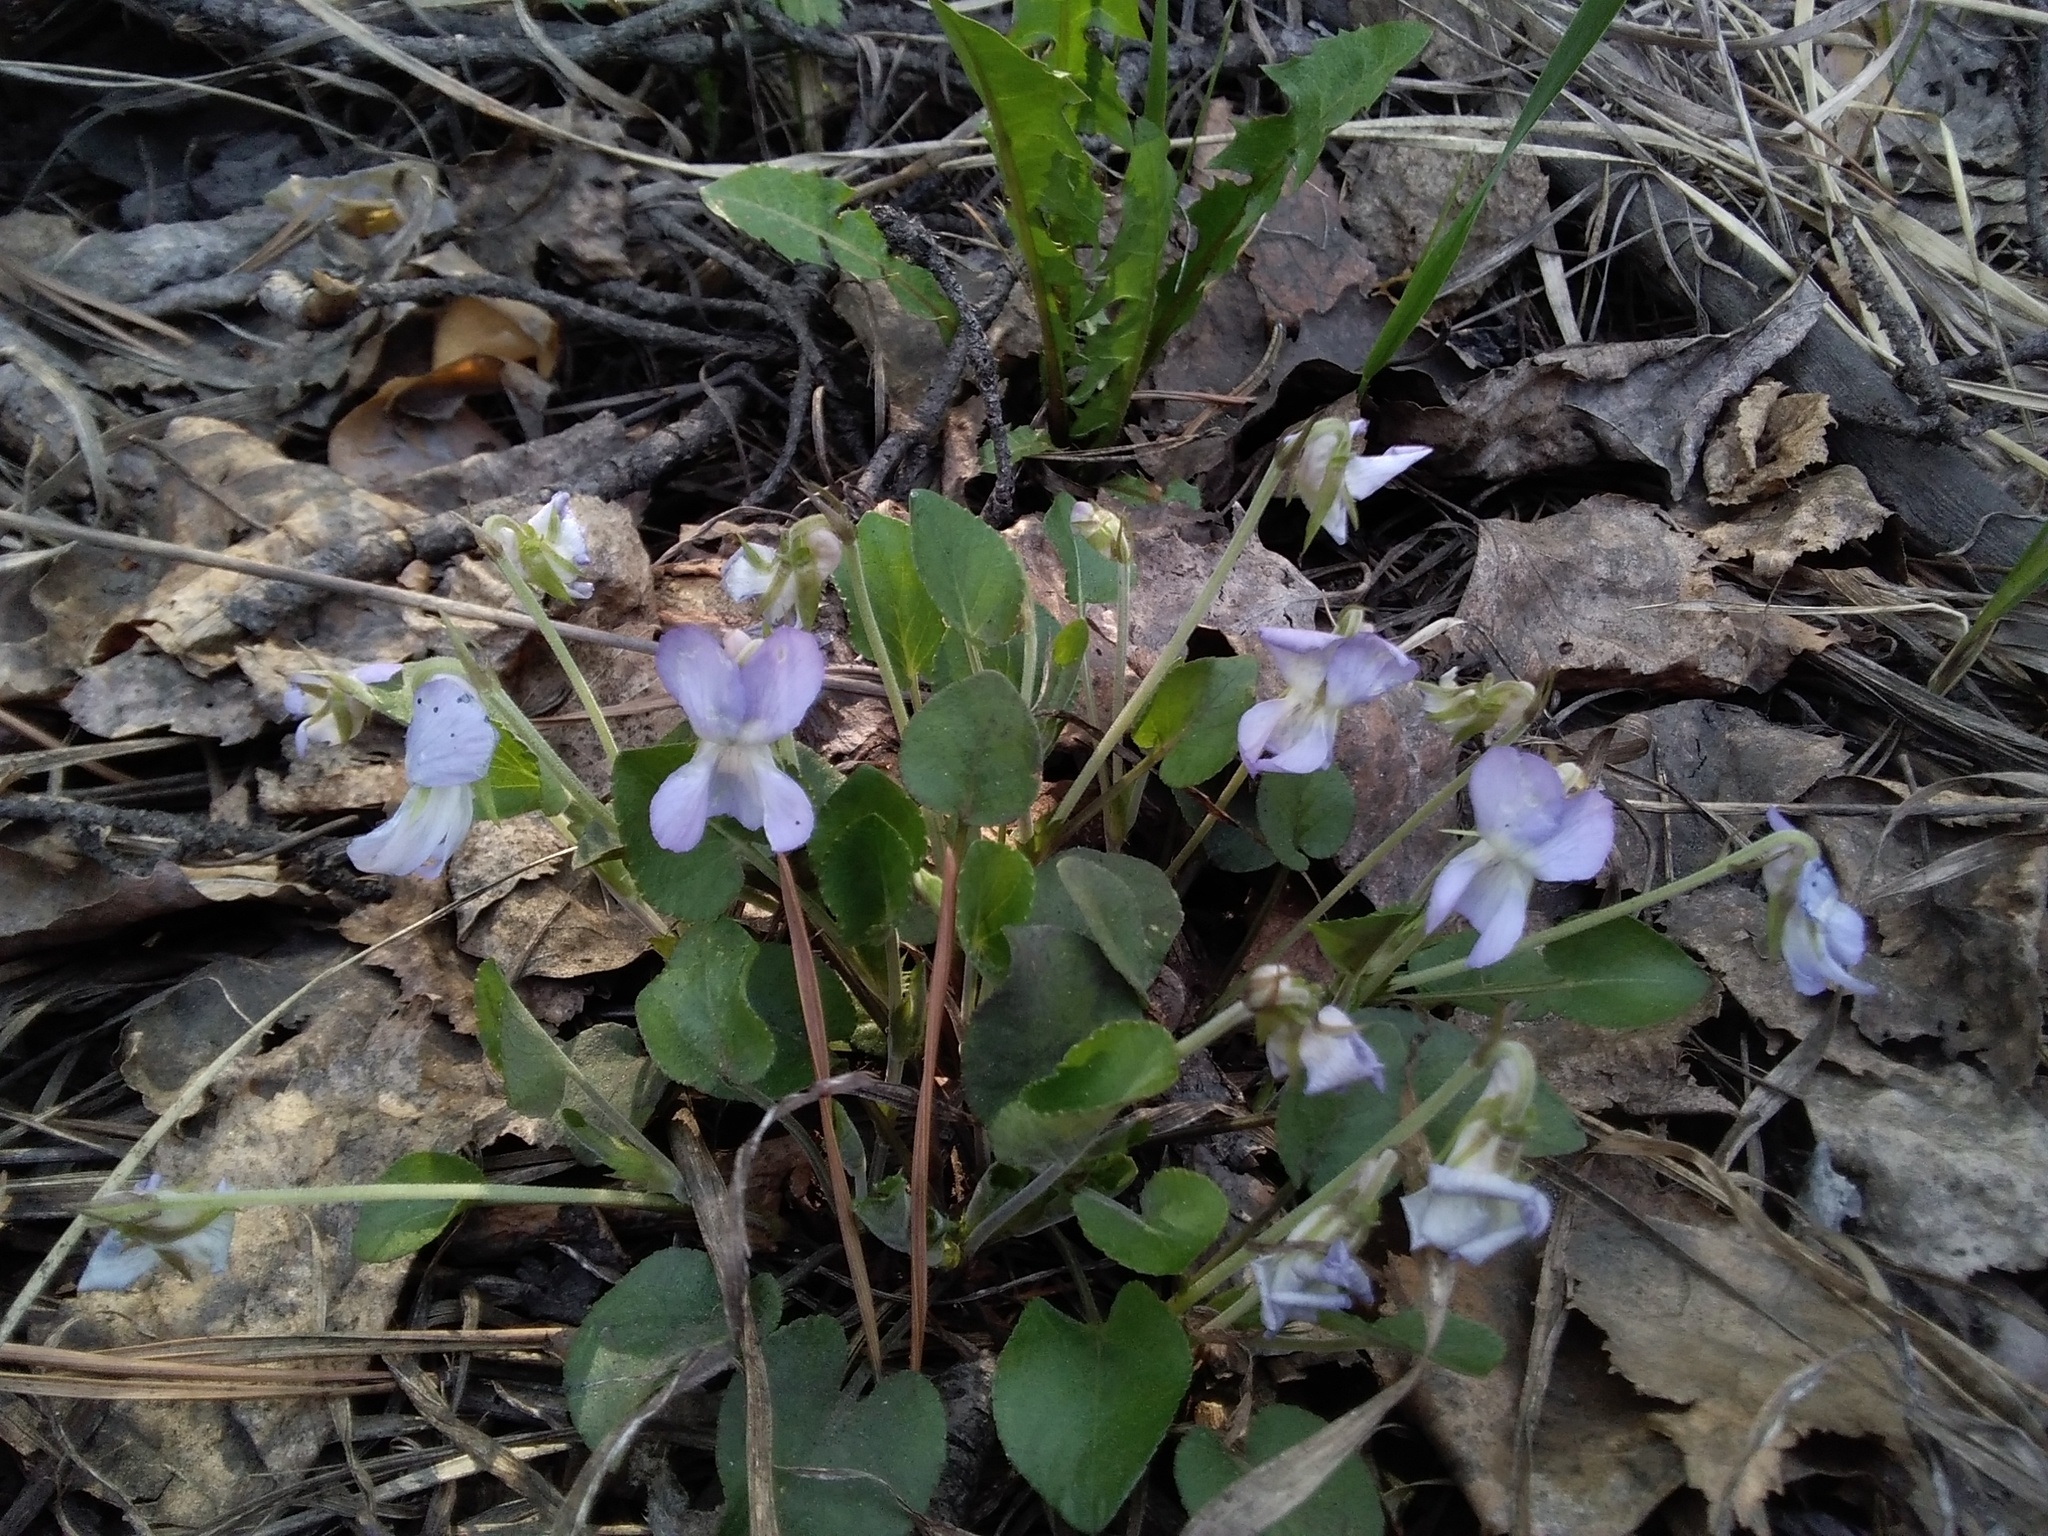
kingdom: Plantae
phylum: Tracheophyta
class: Magnoliopsida
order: Malpighiales
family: Violaceae
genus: Viola
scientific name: Viola rupestris
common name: Teesdale violet
